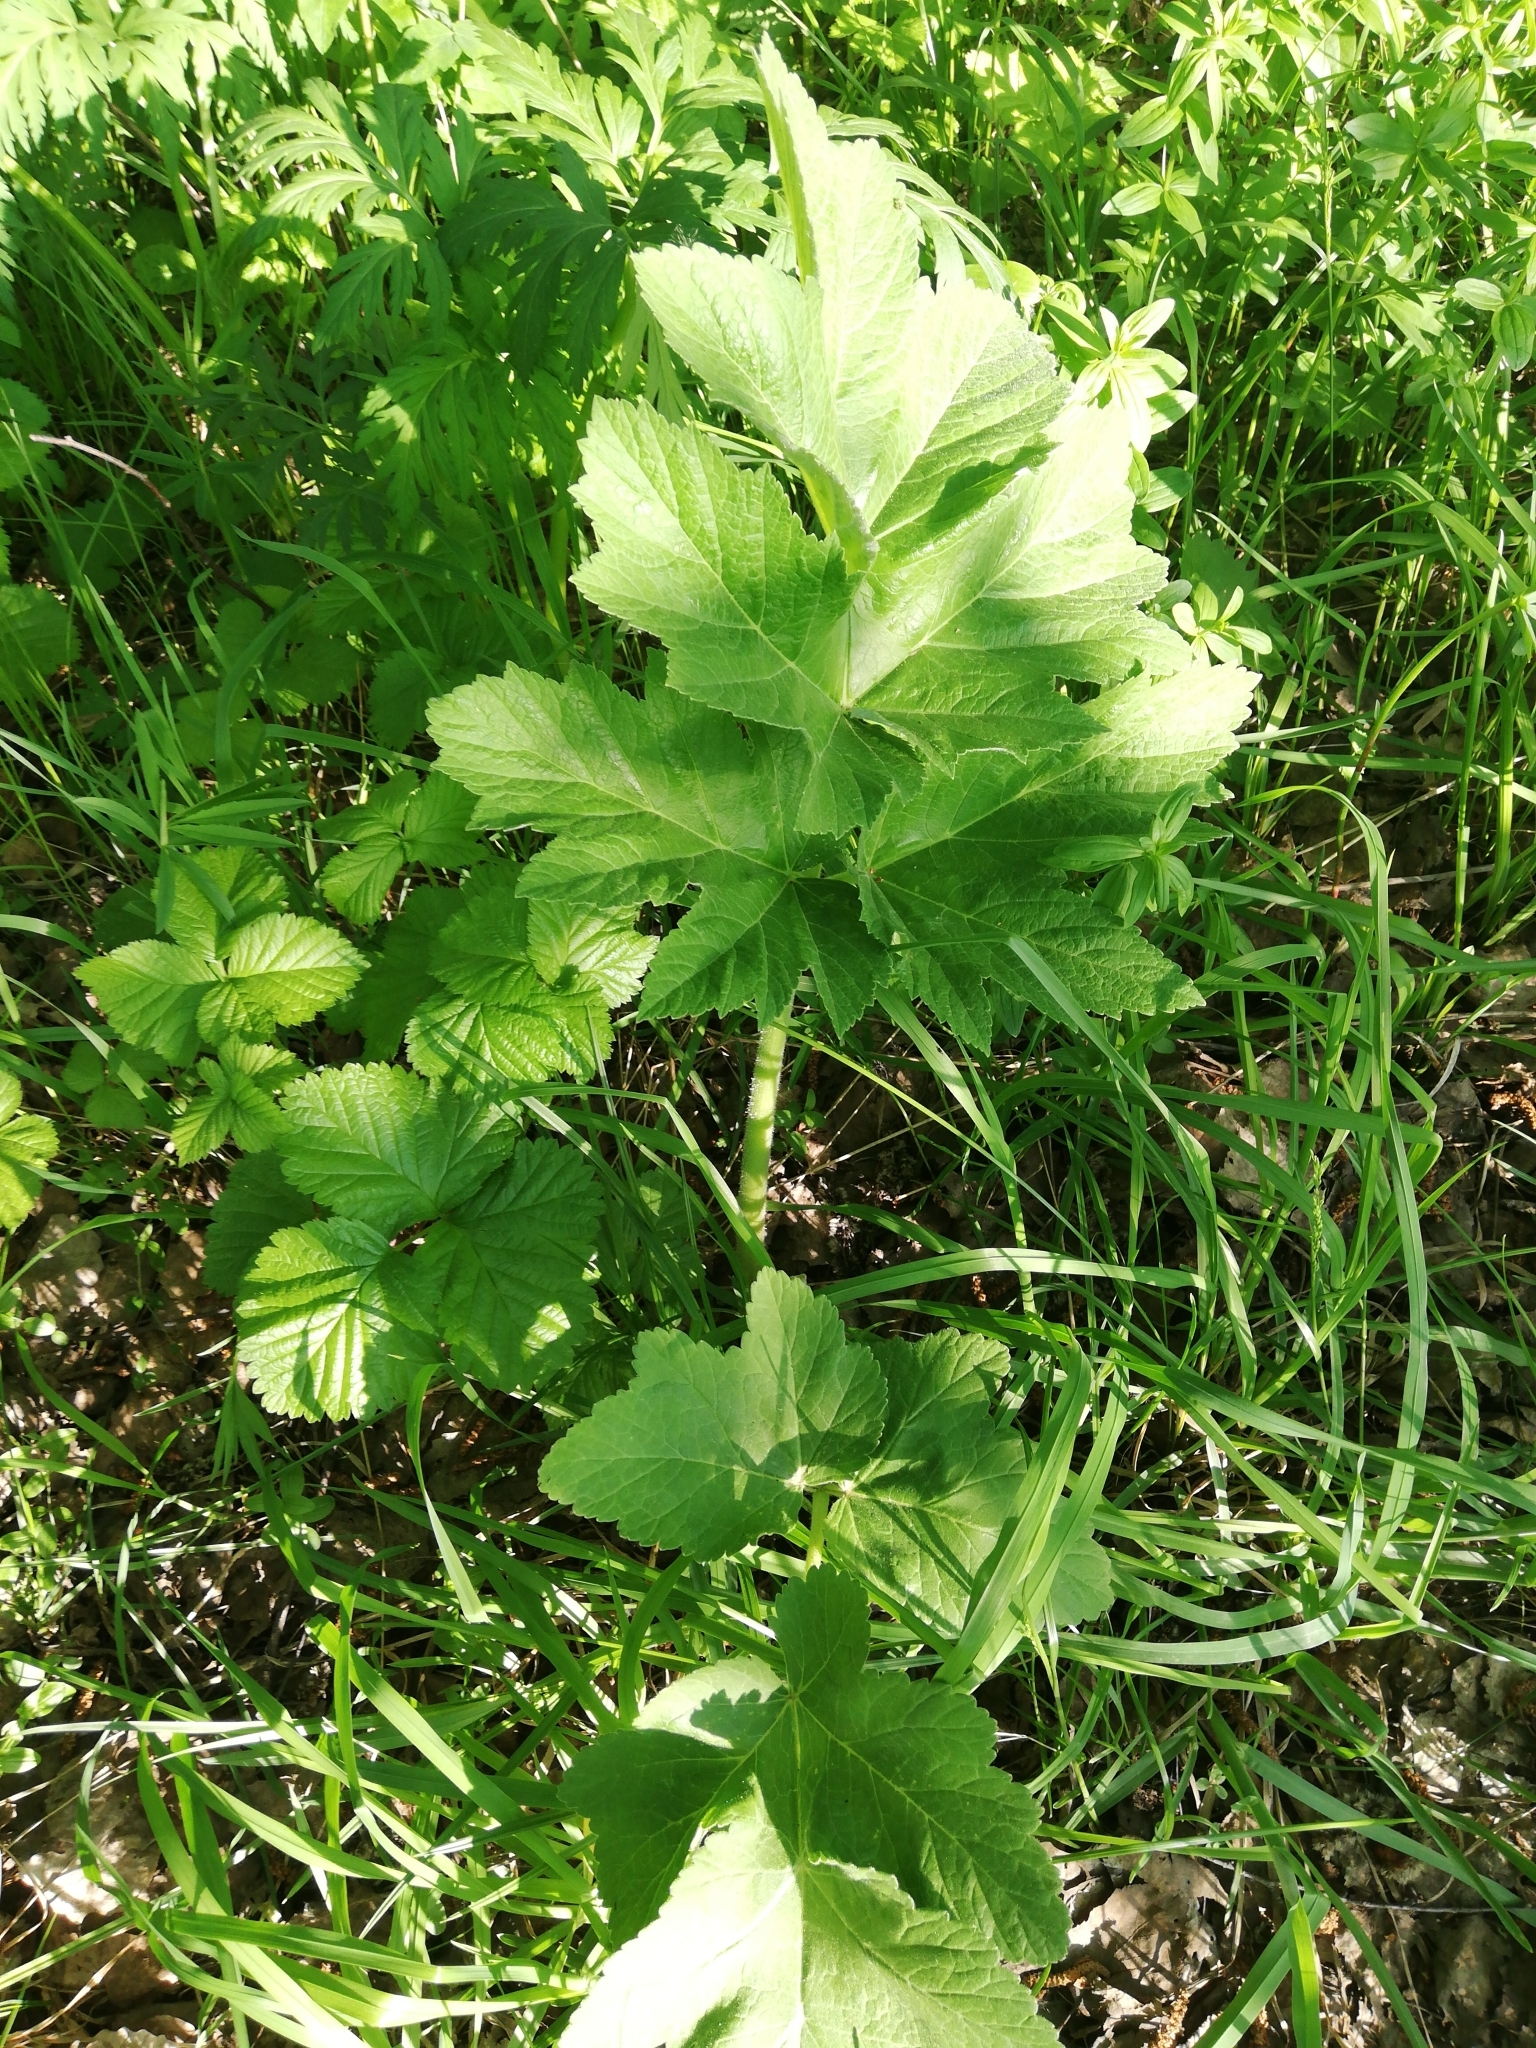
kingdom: Plantae
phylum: Tracheophyta
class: Magnoliopsida
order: Apiales
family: Apiaceae
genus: Heracleum
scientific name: Heracleum dissectum
